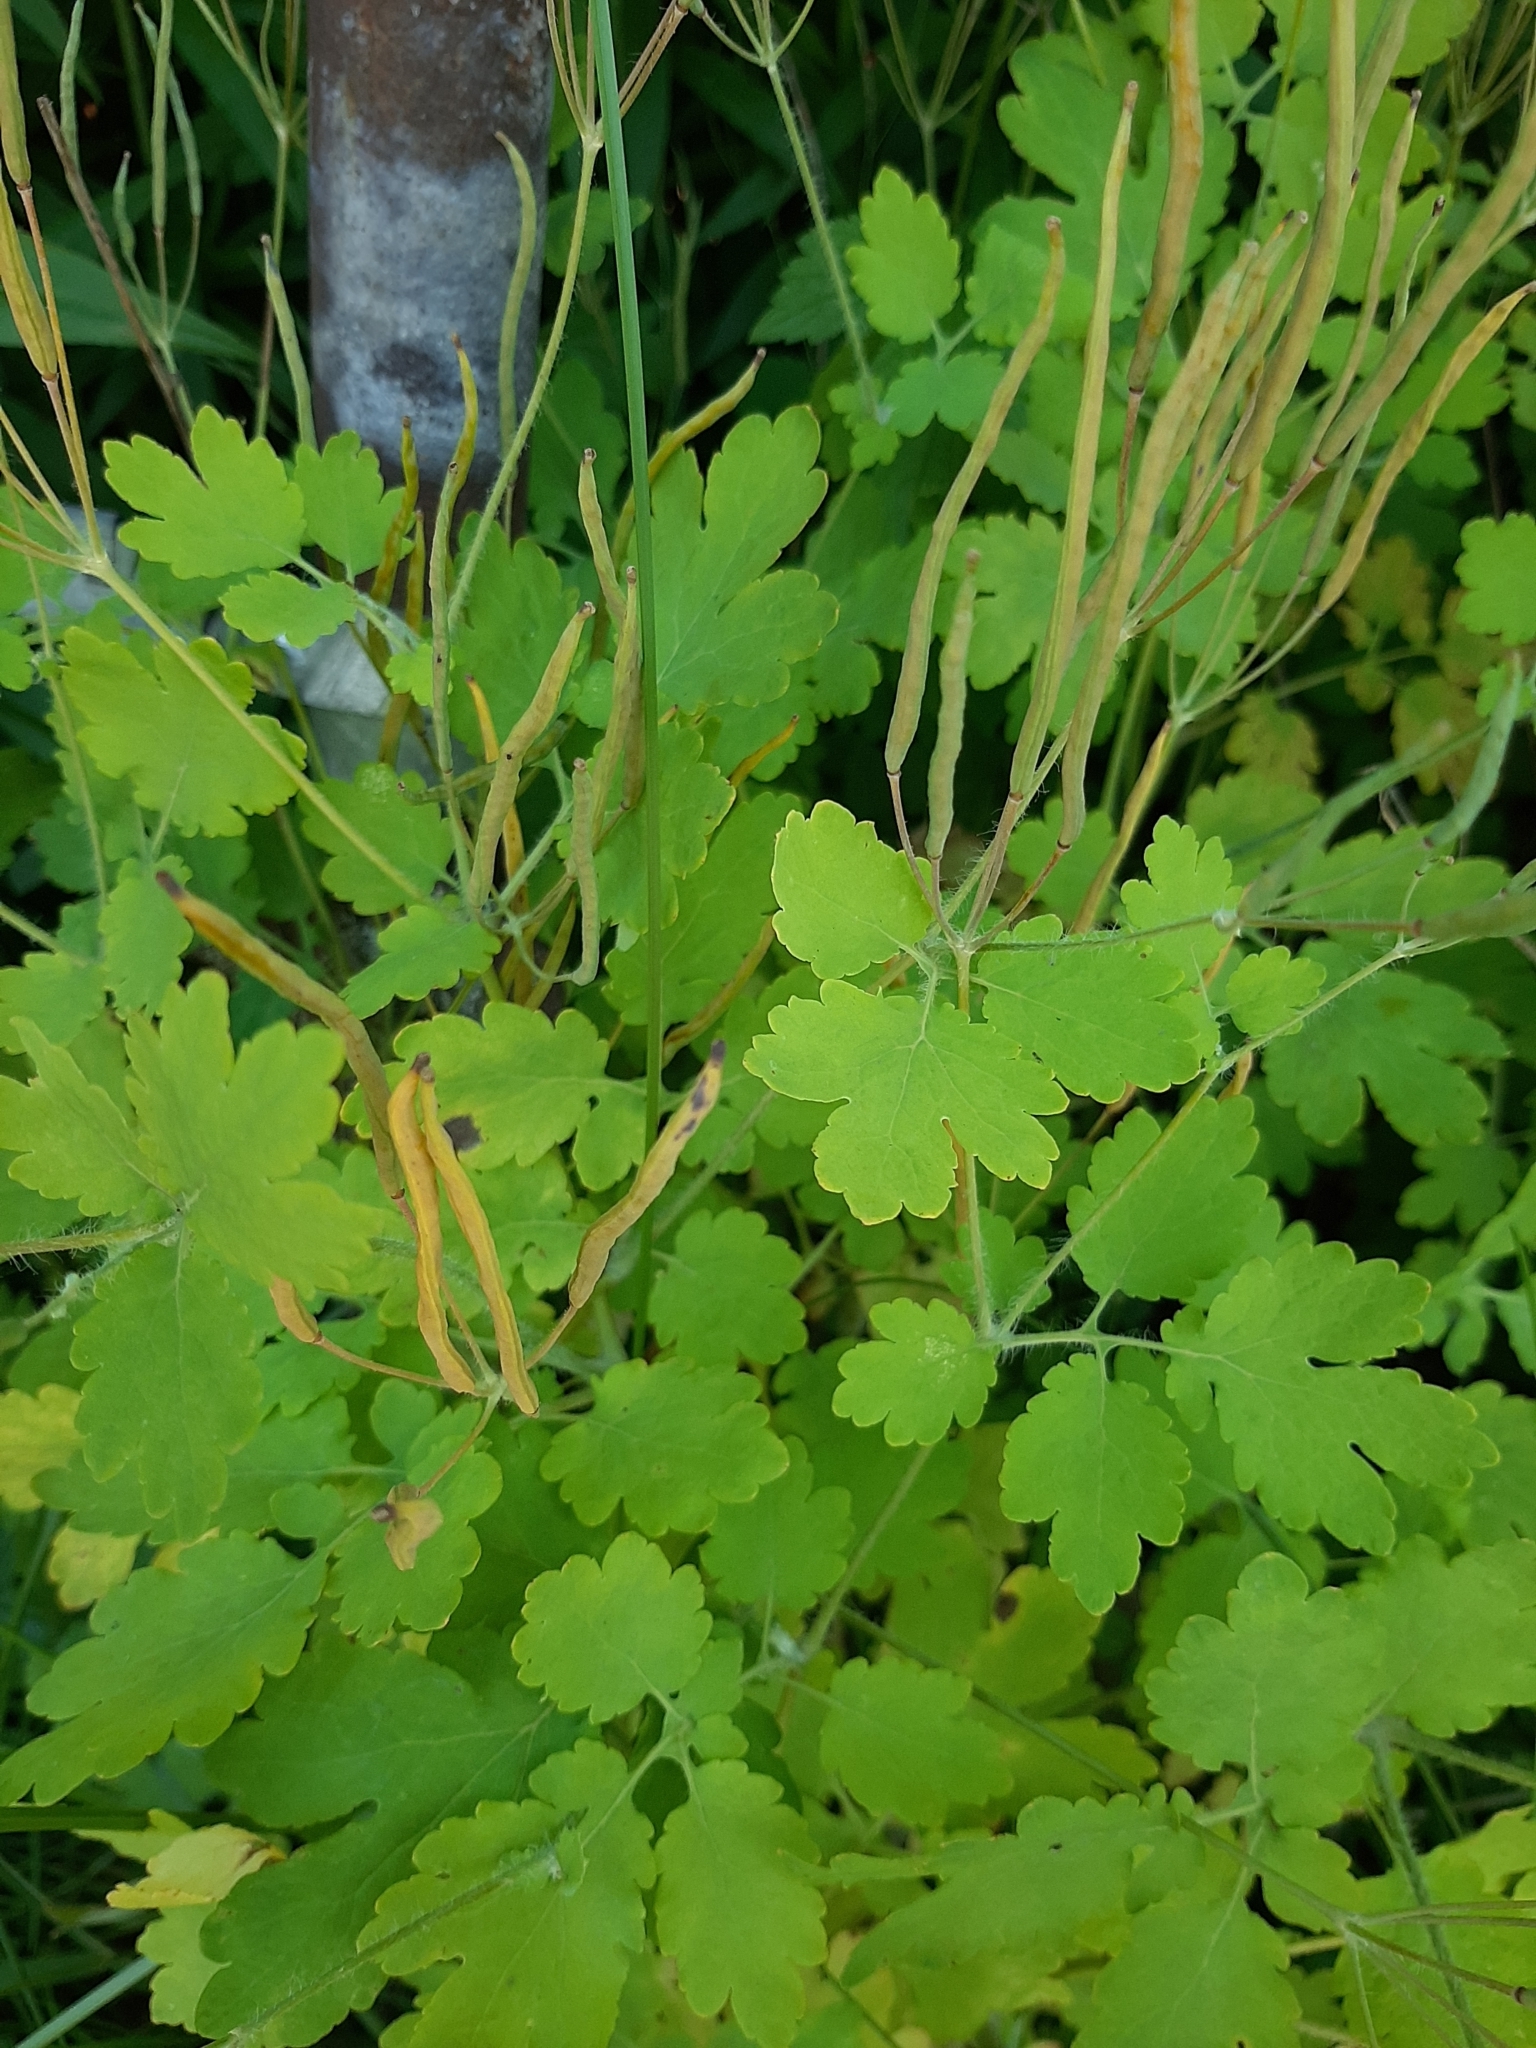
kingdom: Plantae
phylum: Tracheophyta
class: Magnoliopsida
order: Ranunculales
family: Papaveraceae
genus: Chelidonium
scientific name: Chelidonium majus
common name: Greater celandine
